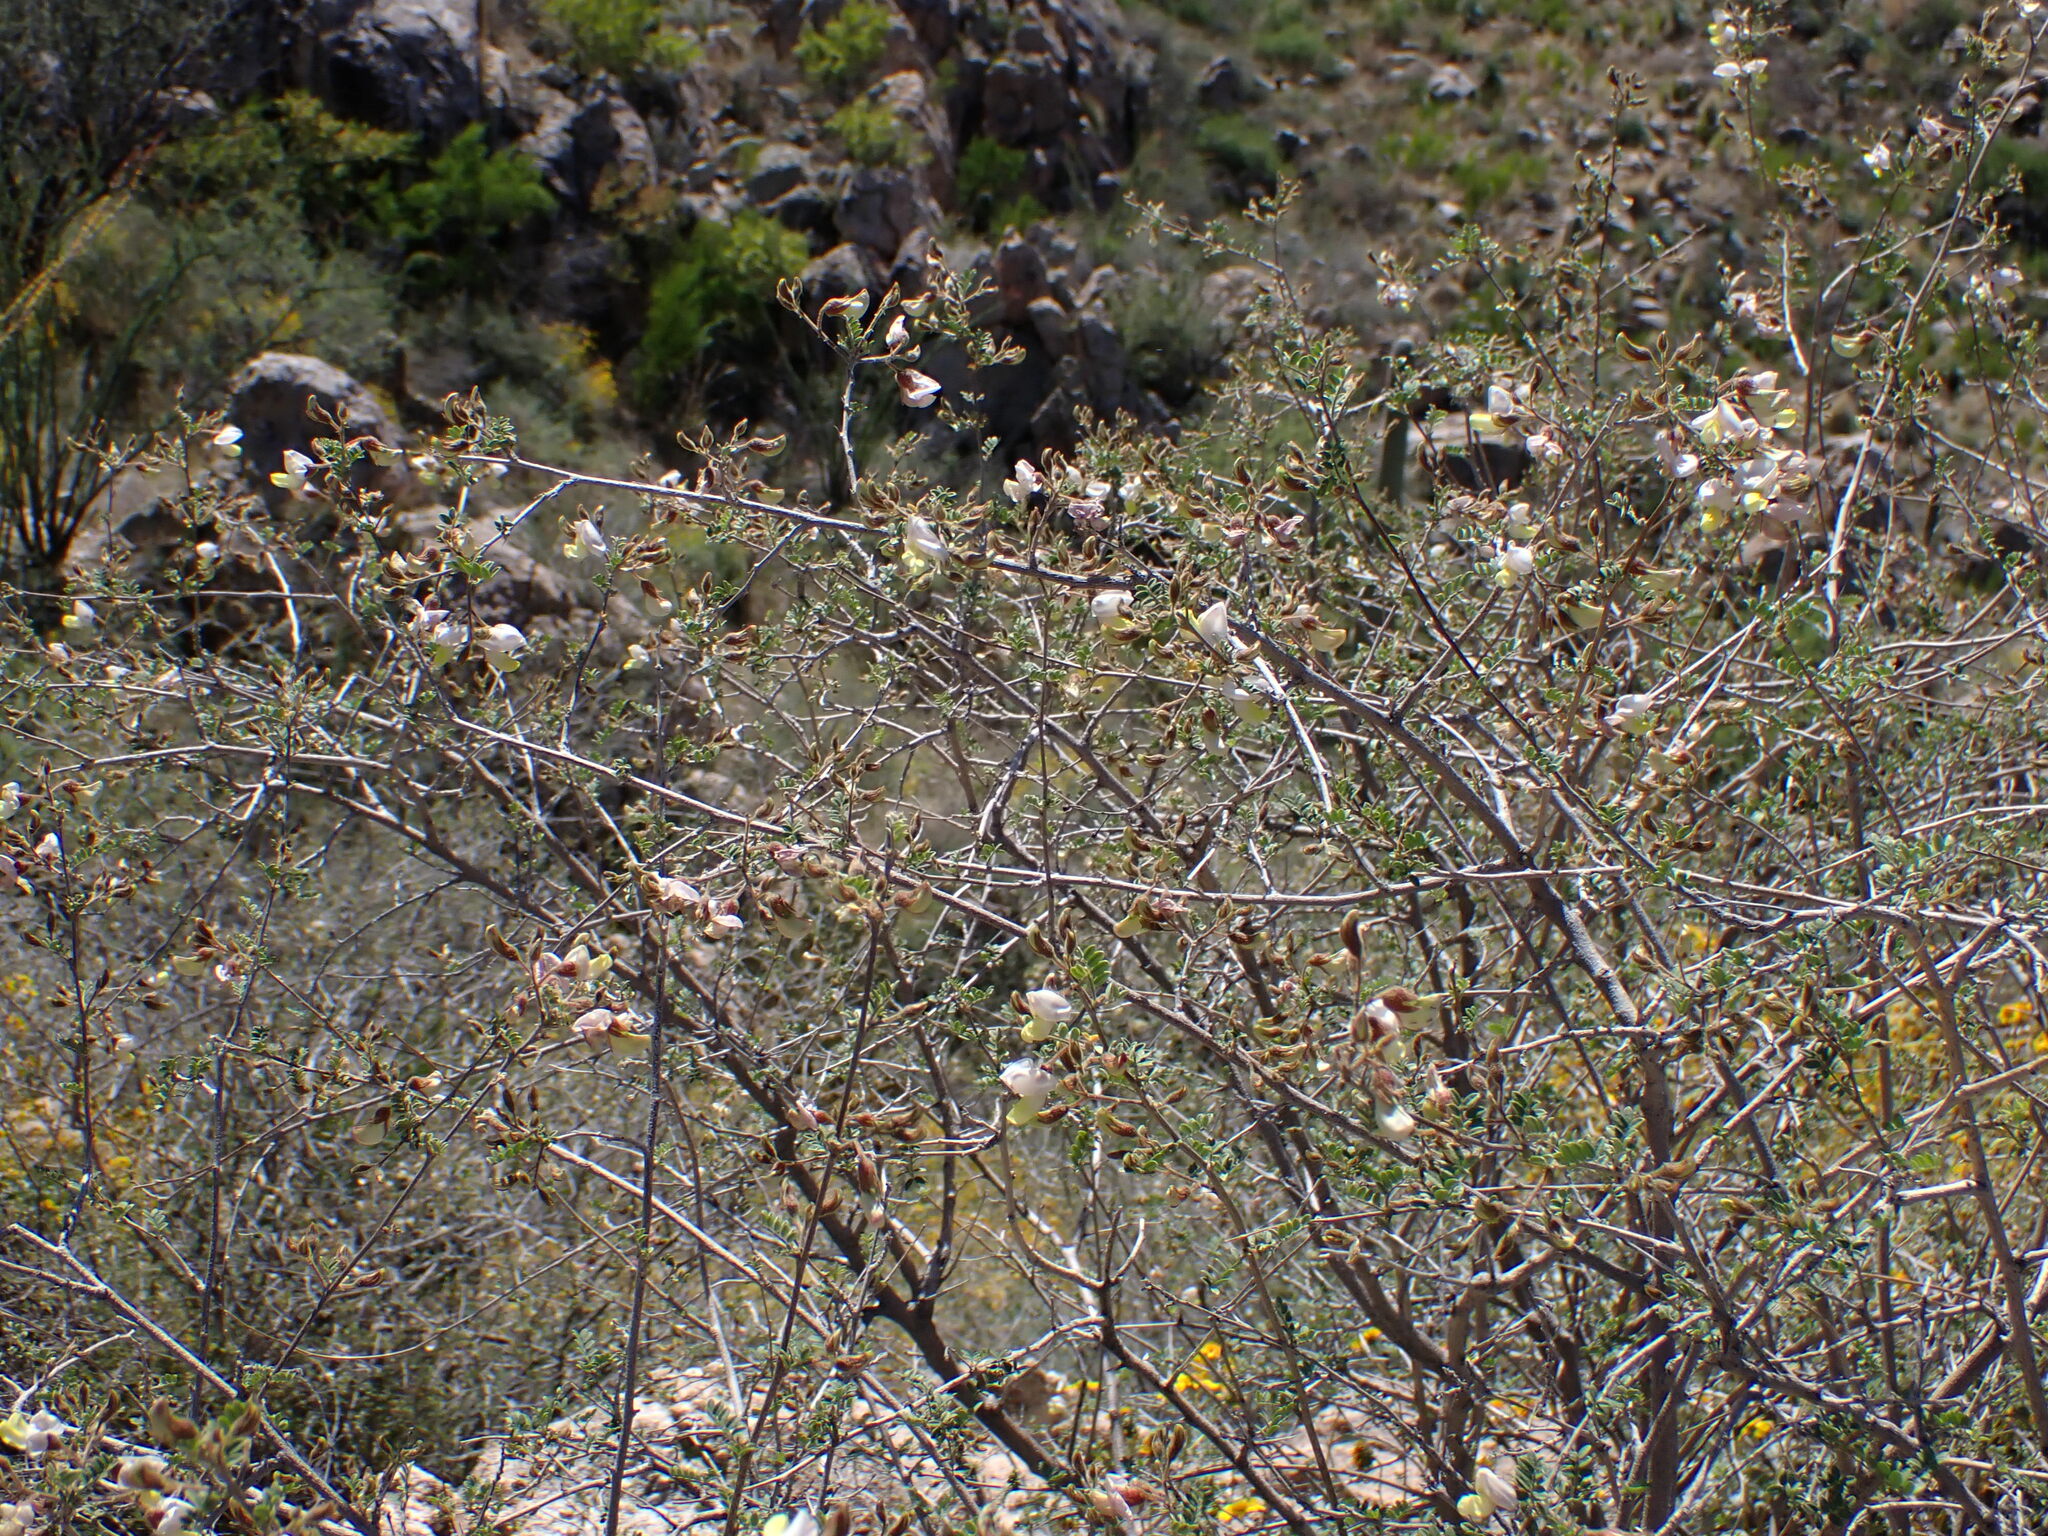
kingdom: Plantae
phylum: Tracheophyta
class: Magnoliopsida
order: Fabales
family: Fabaceae
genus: Coursetia
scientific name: Coursetia glandulosa
